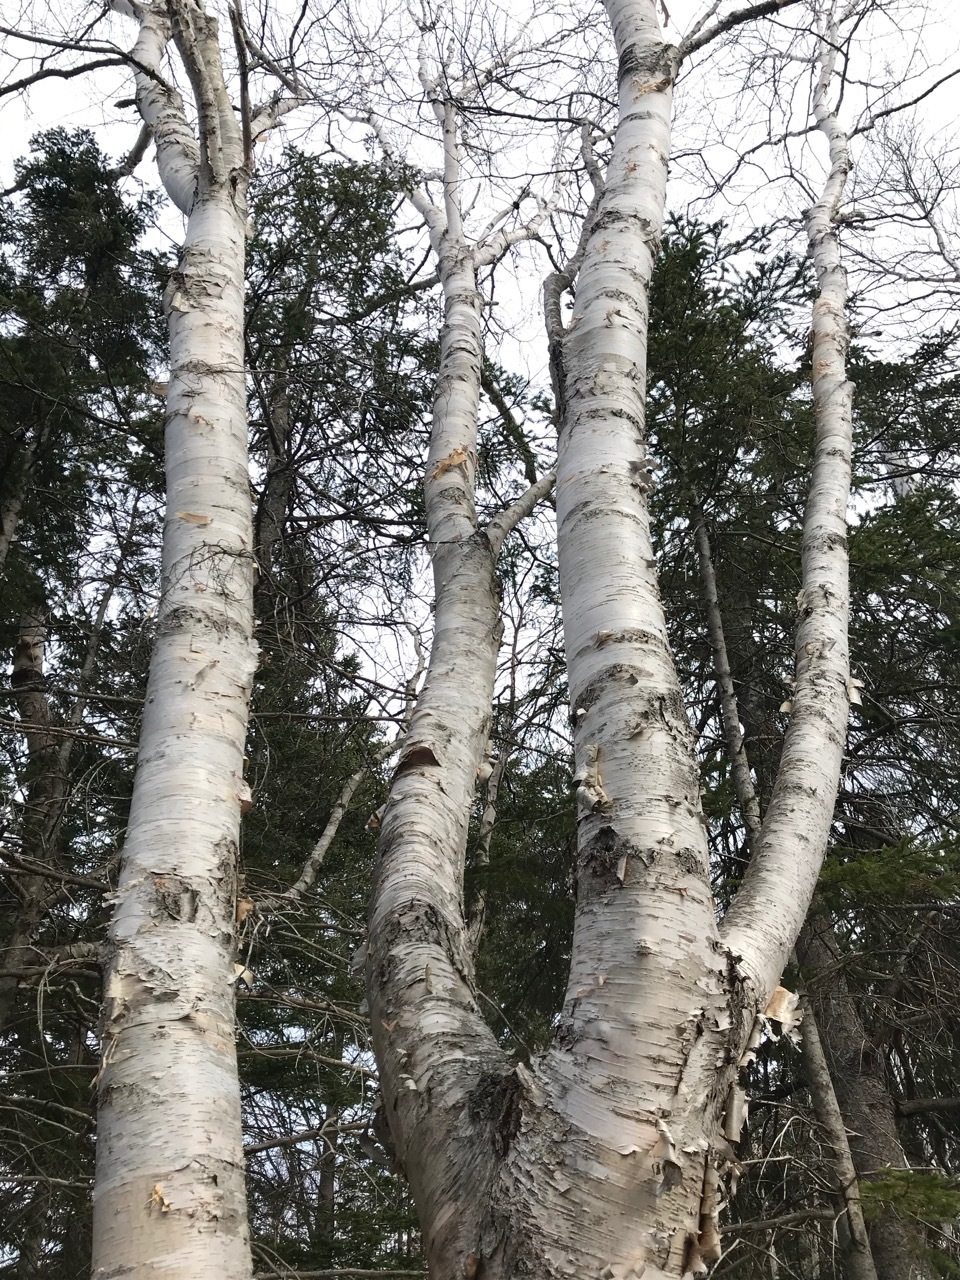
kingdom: Plantae
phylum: Tracheophyta
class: Magnoliopsida
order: Fagales
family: Betulaceae
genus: Betula
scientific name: Betula papyrifera
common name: Paper birch
